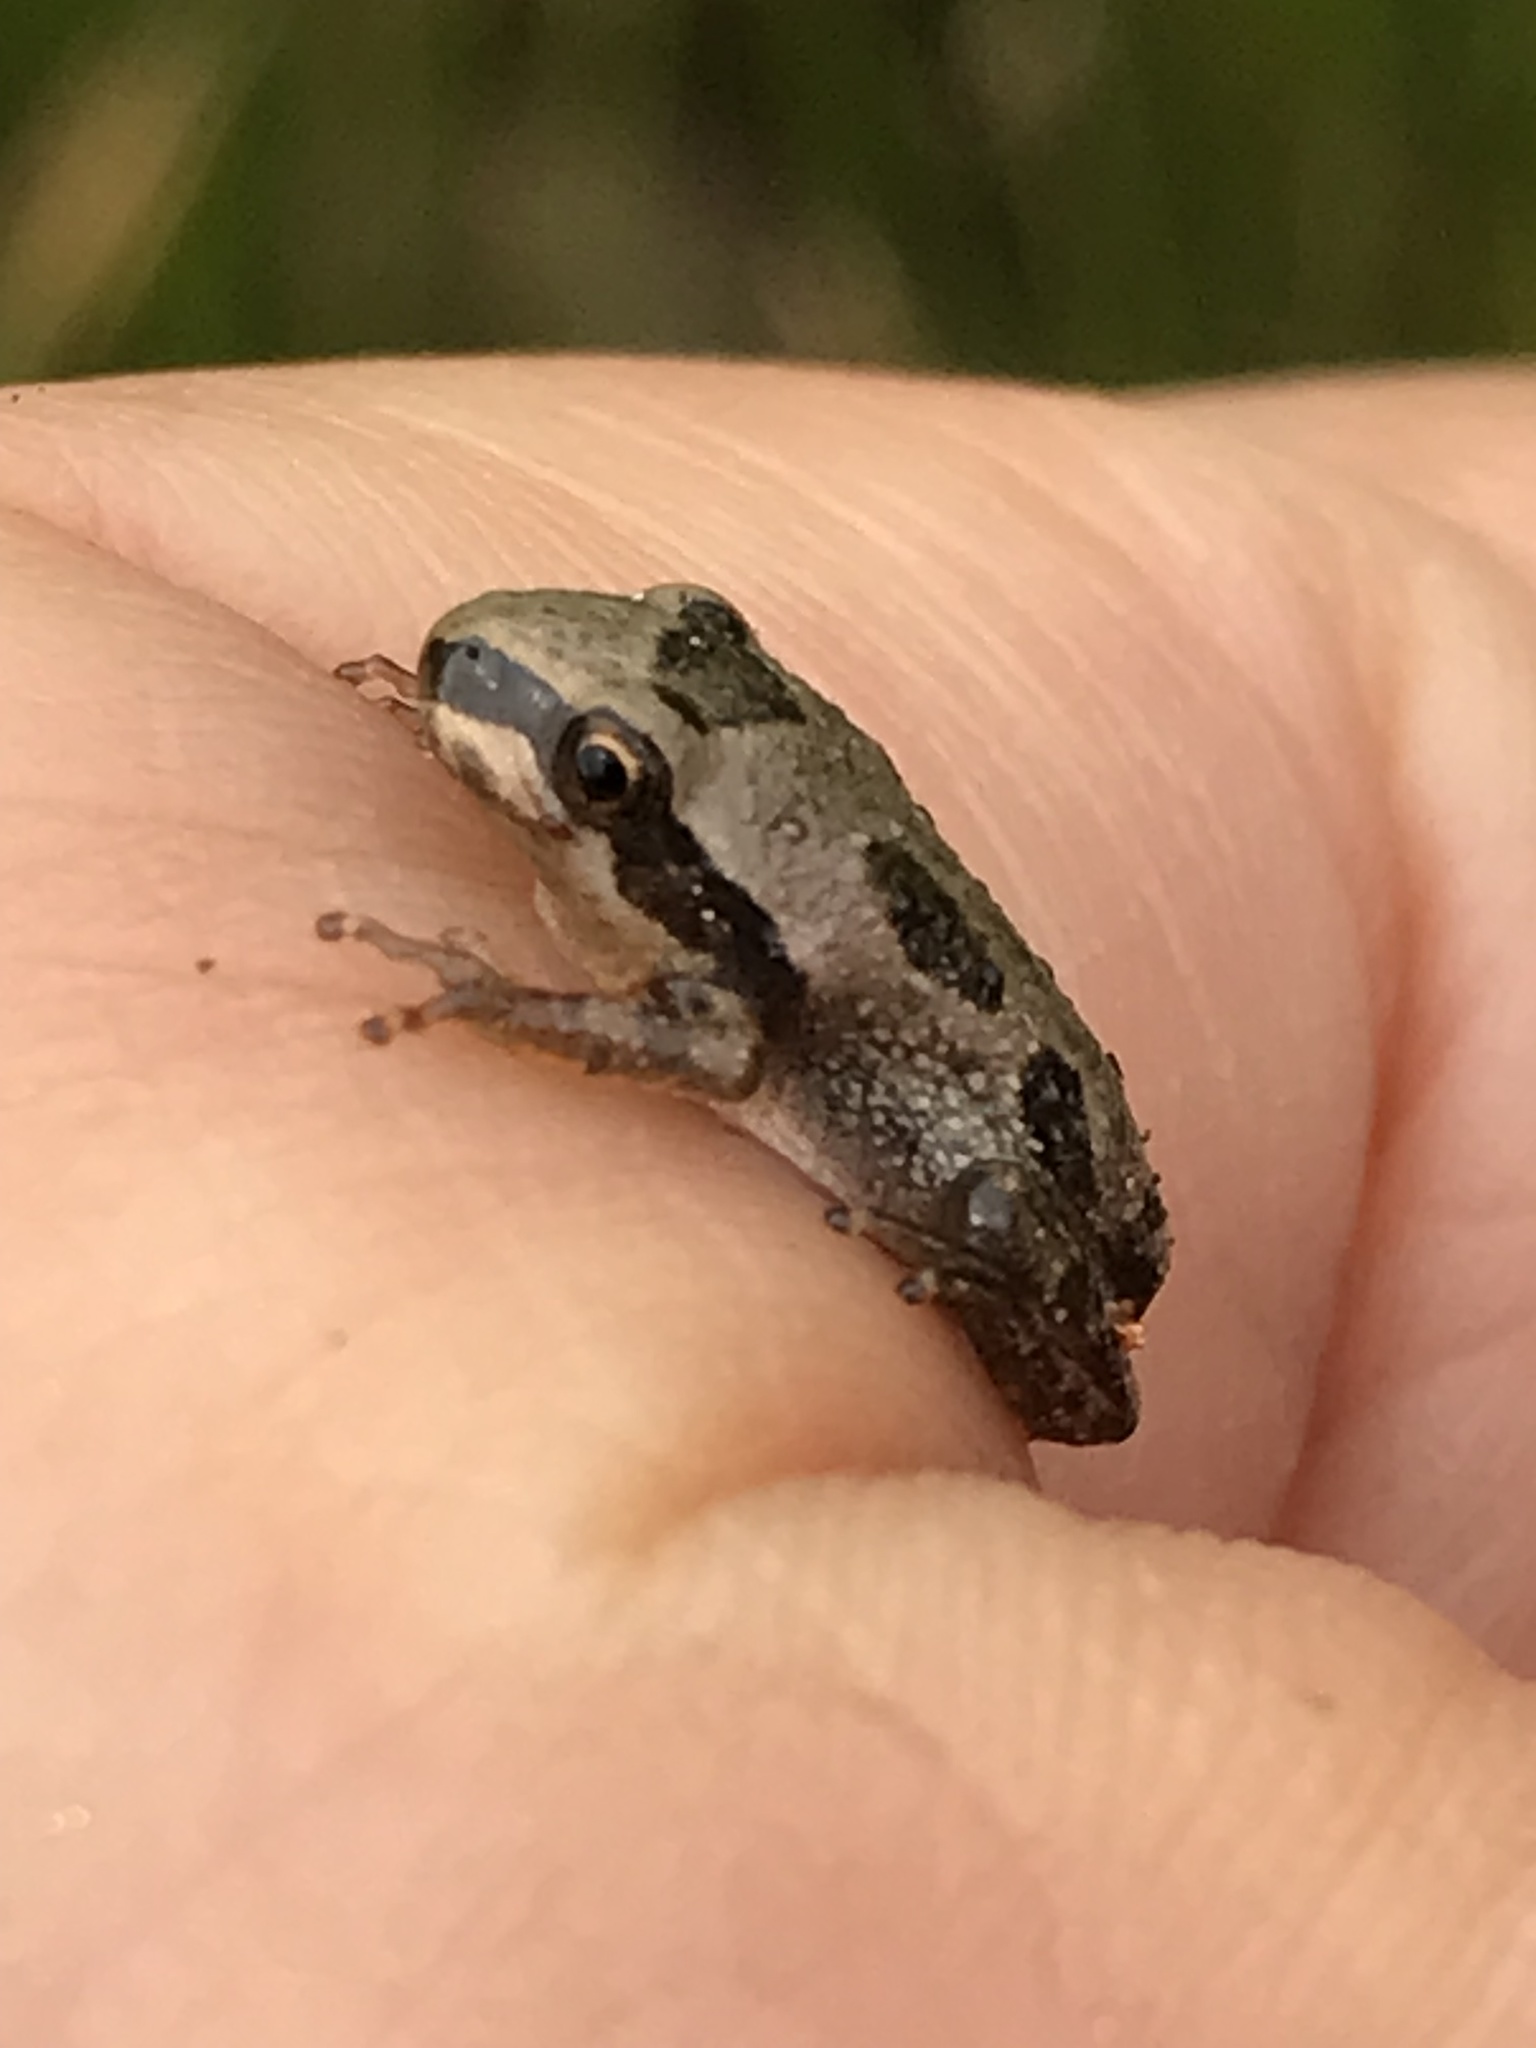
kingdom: Animalia
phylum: Chordata
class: Amphibia
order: Anura
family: Hylidae
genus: Pseudacris
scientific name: Pseudacris regilla
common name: Pacific chorus frog
